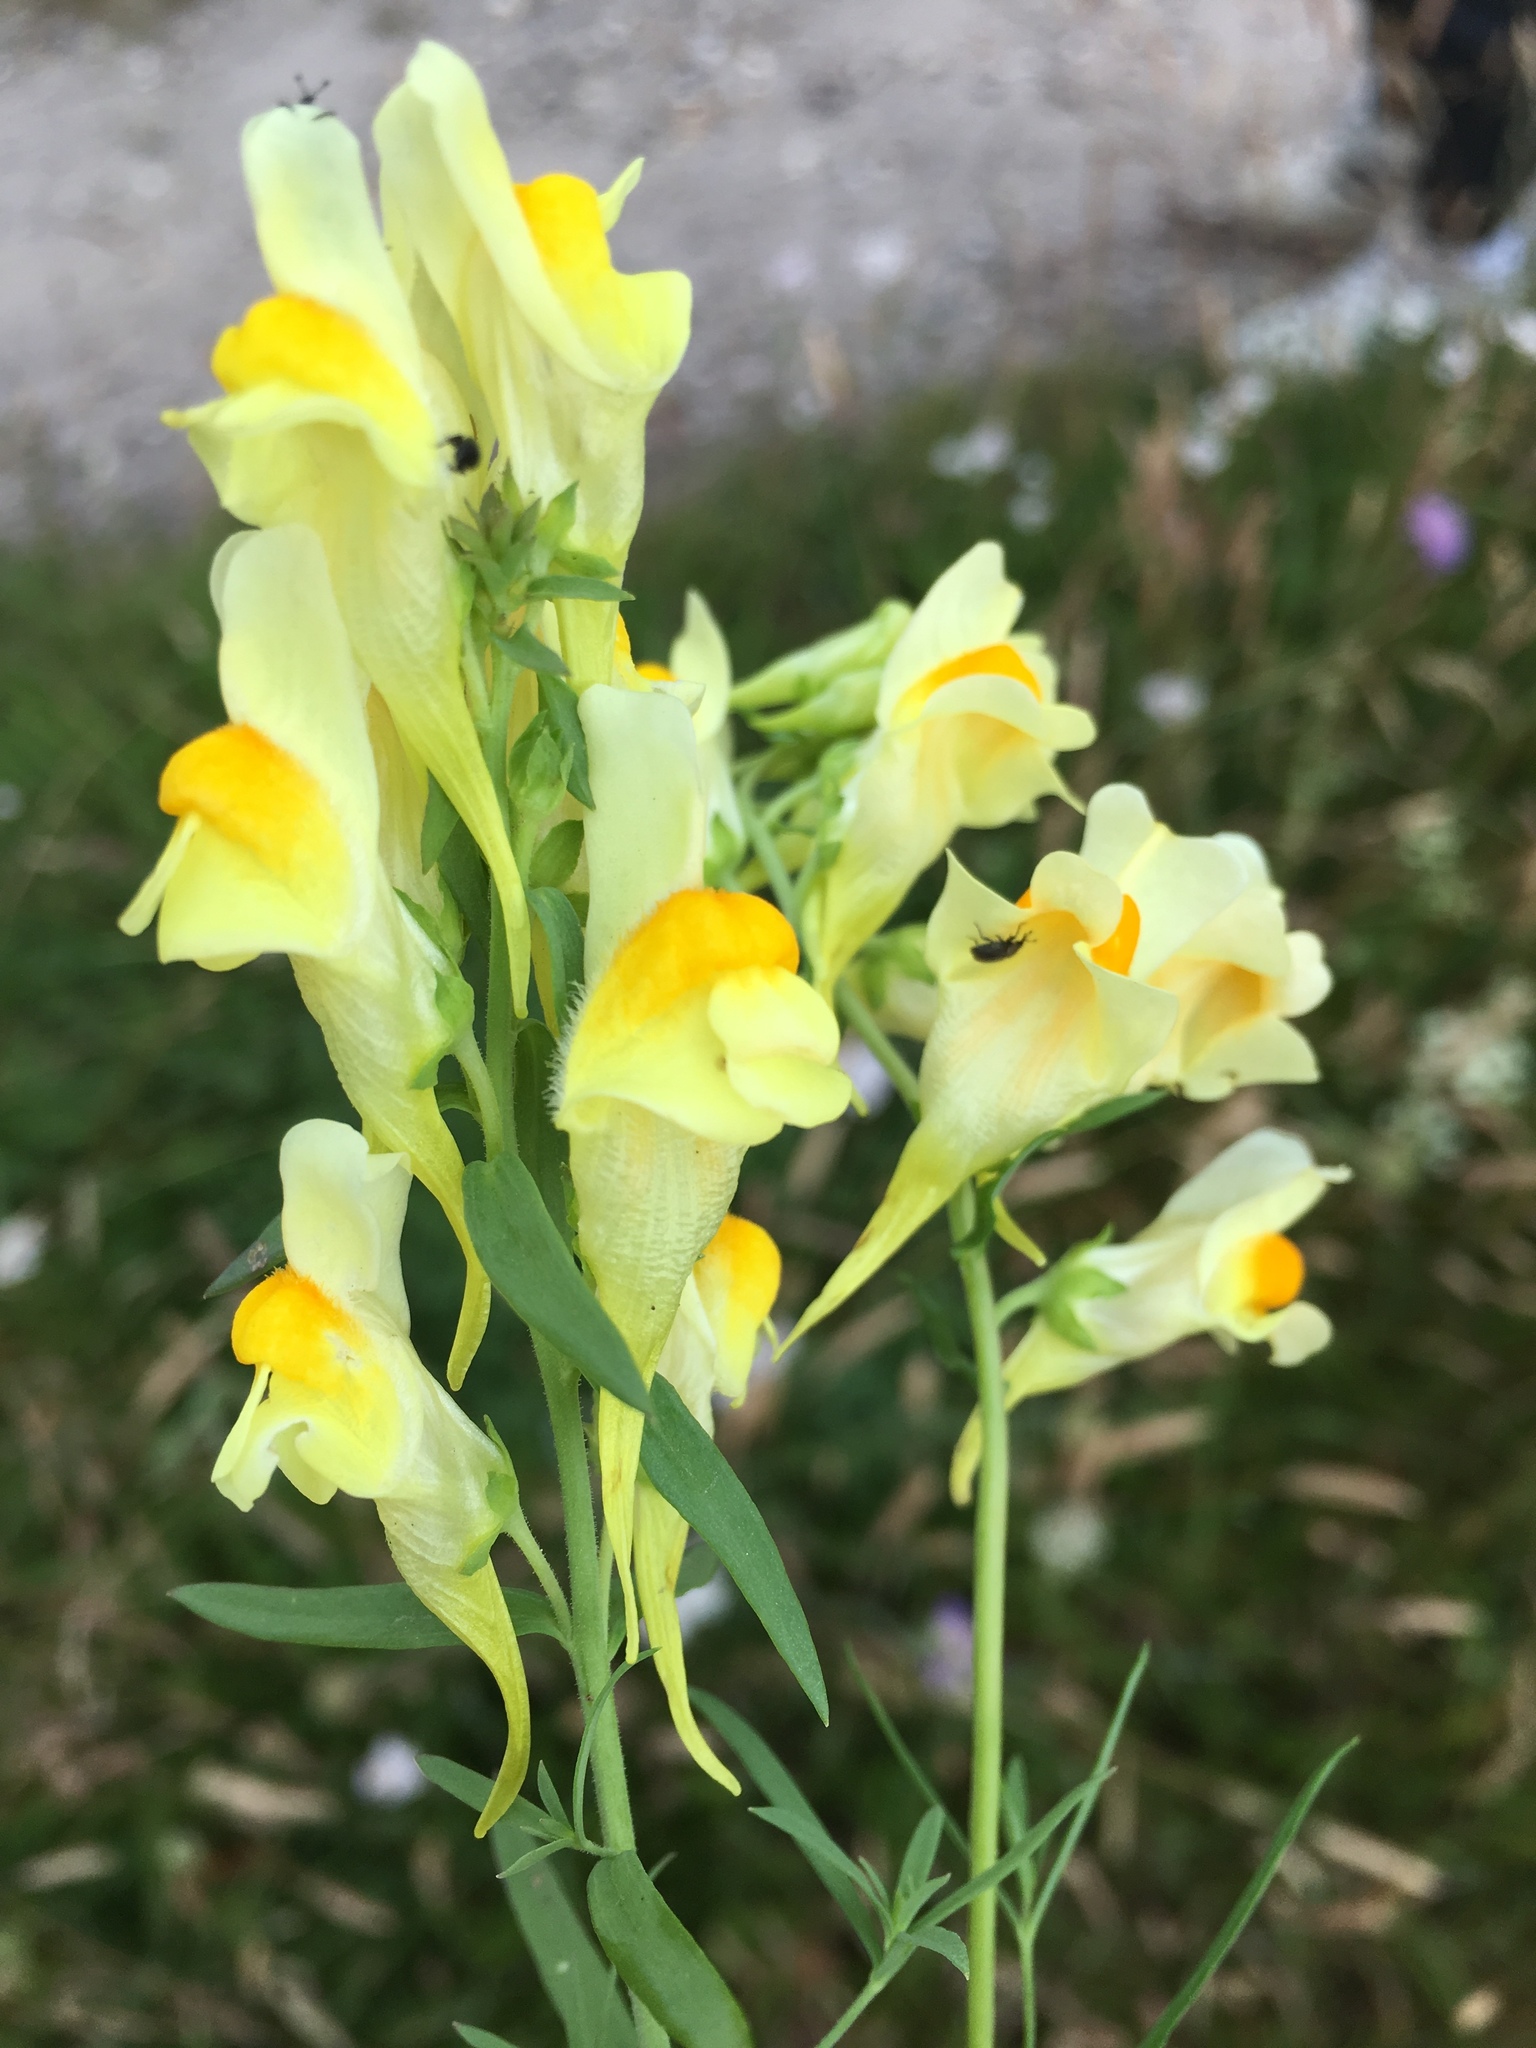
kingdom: Plantae
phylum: Tracheophyta
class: Magnoliopsida
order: Lamiales
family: Plantaginaceae
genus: Linaria
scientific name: Linaria vulgaris
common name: Butter and eggs
